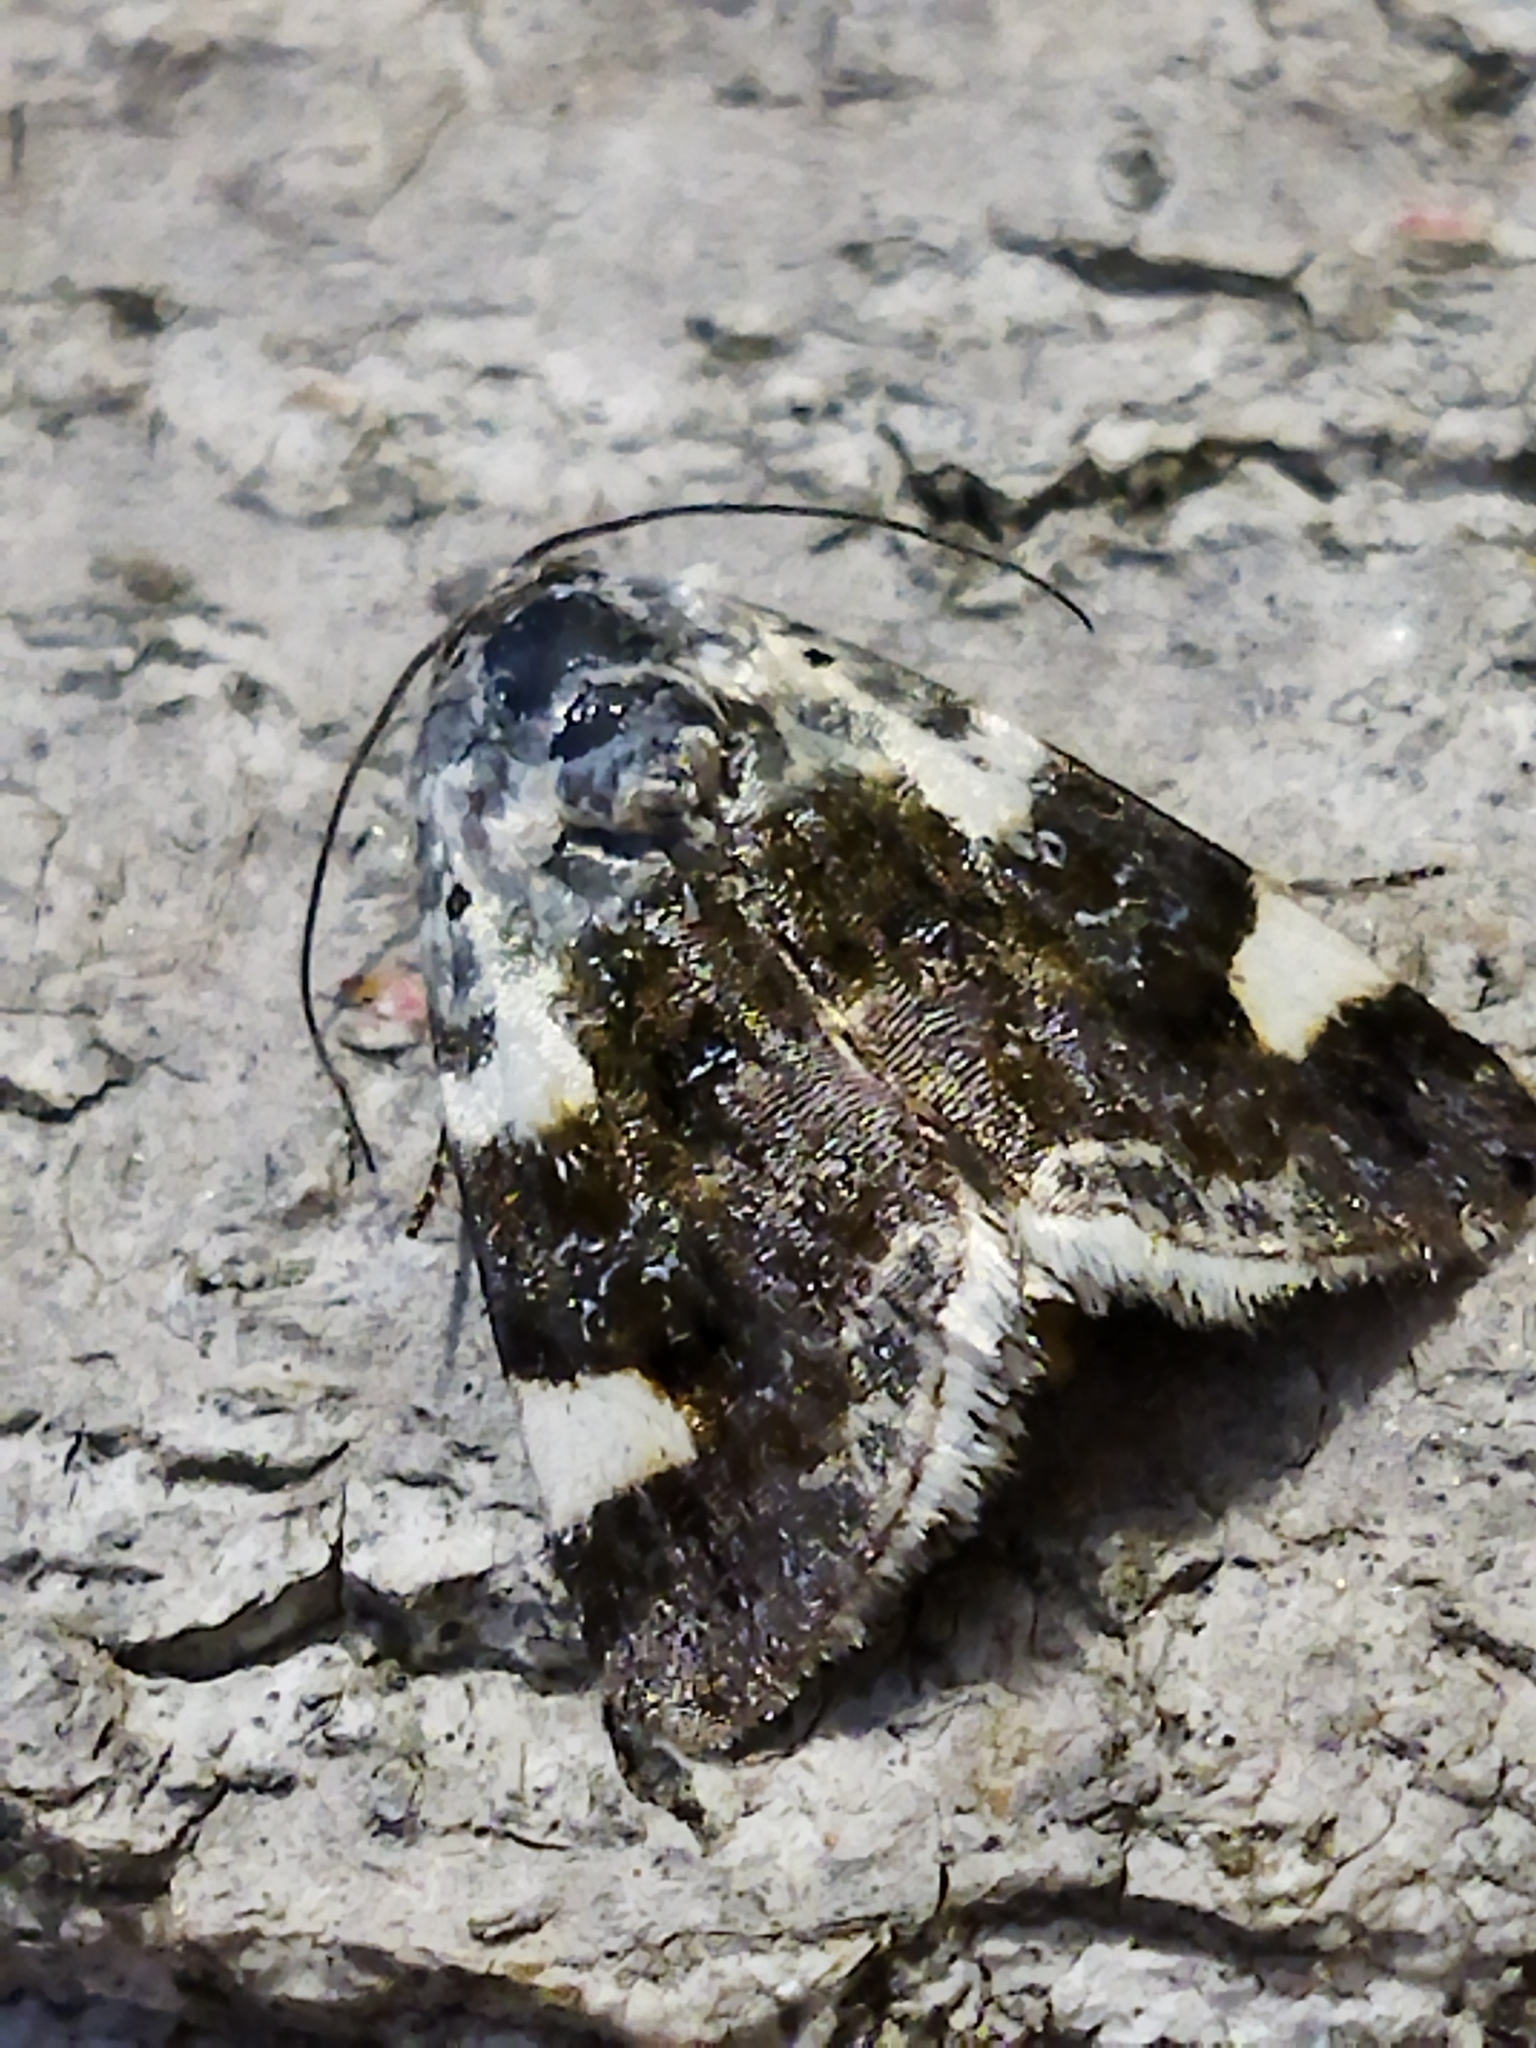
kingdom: Animalia
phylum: Arthropoda
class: Insecta
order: Lepidoptera
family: Noctuidae
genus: Acontia
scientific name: Acontia lucida
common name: Pale shoulder
